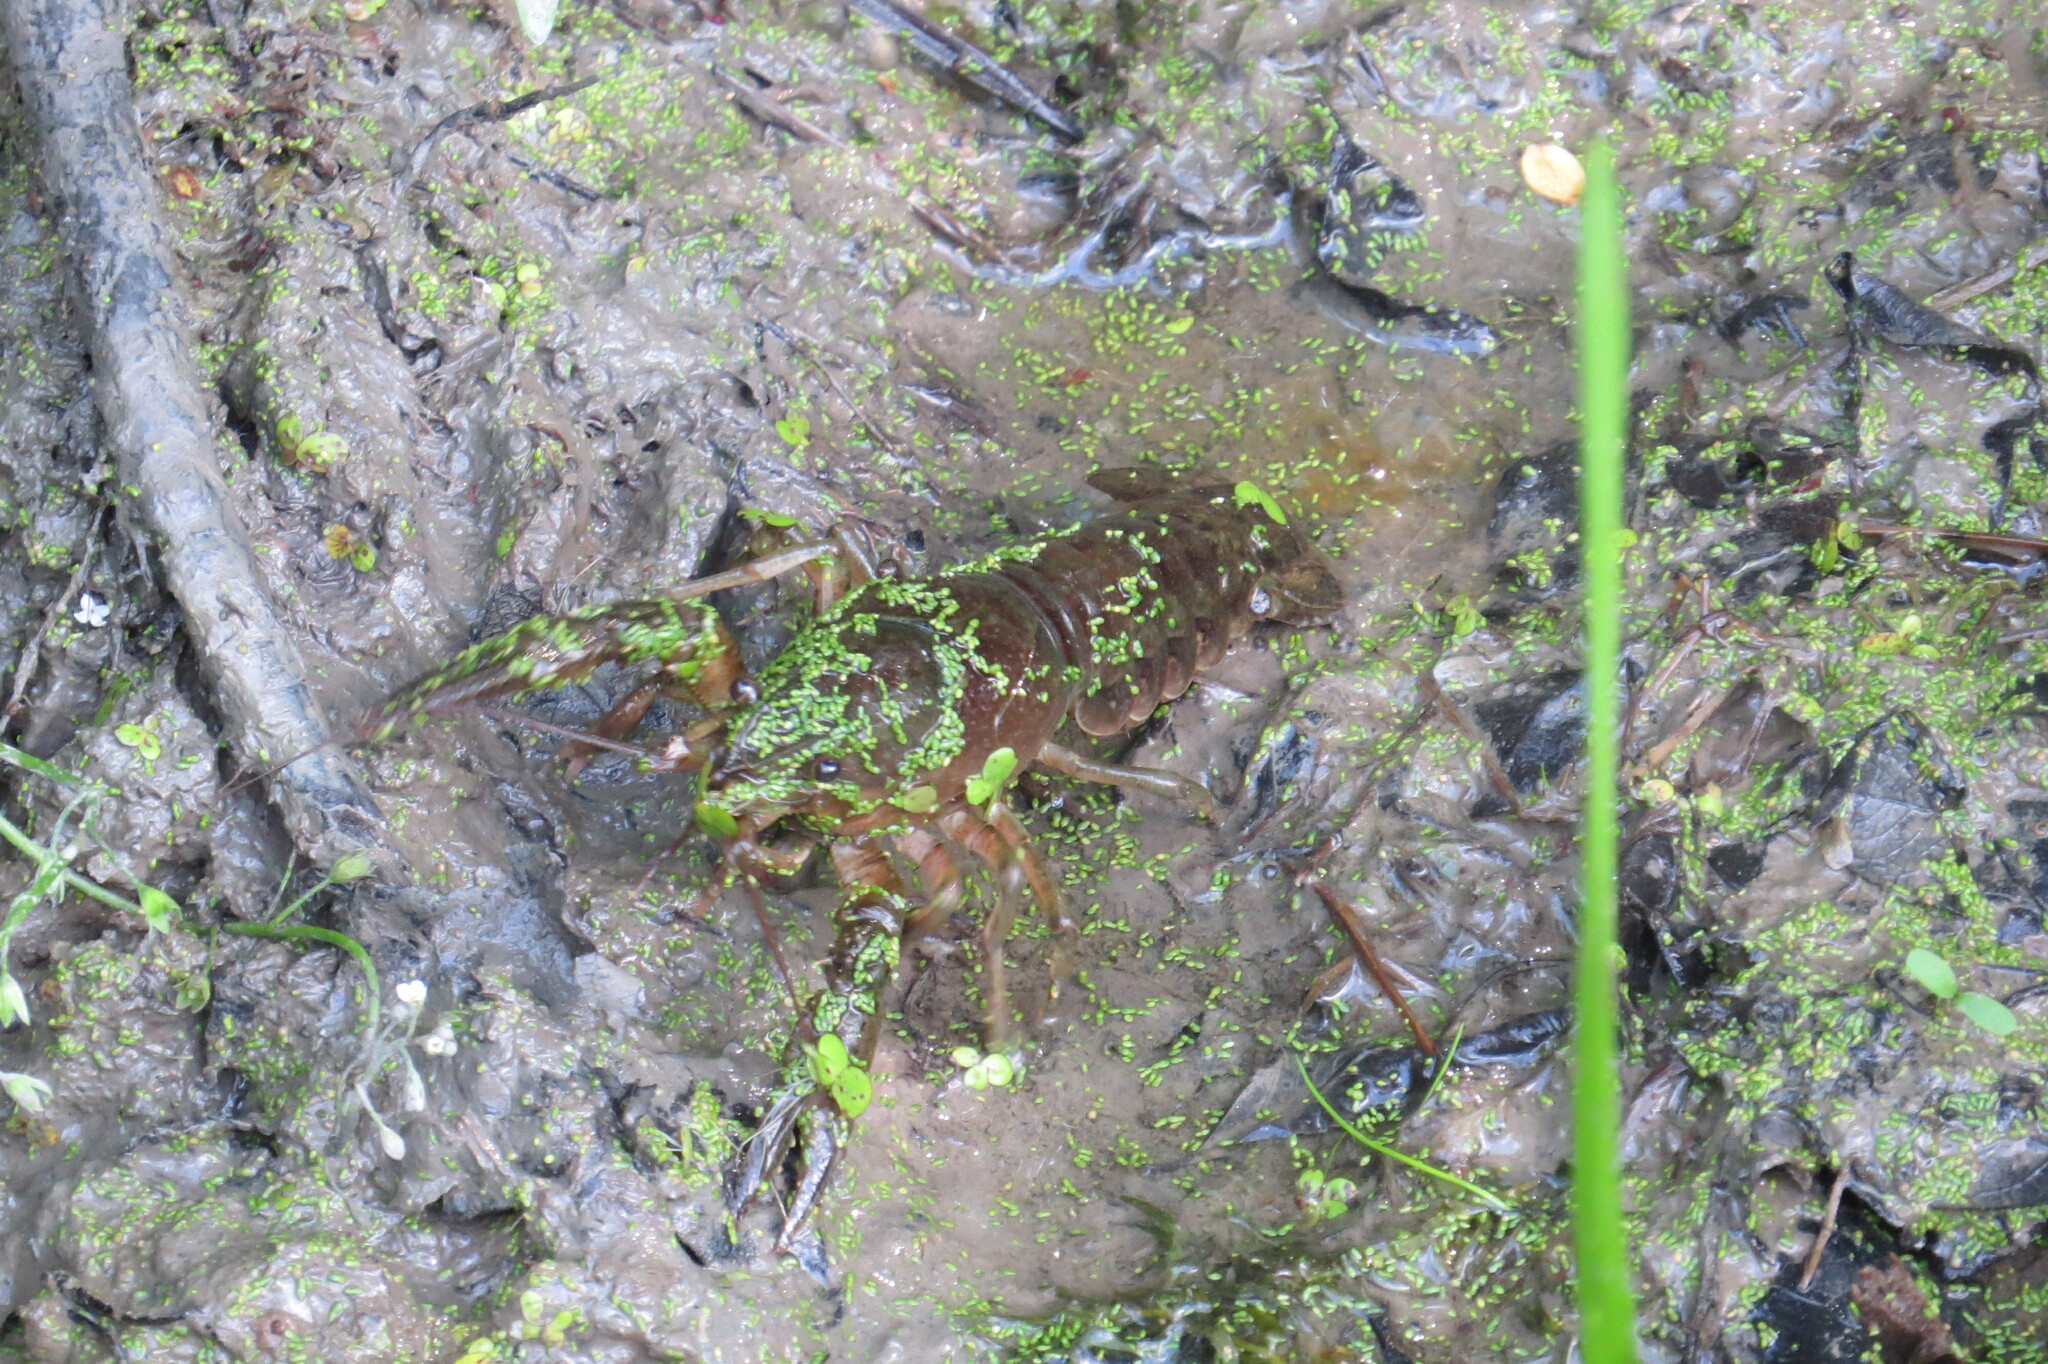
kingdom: Animalia
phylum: Arthropoda
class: Malacostraca
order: Decapoda
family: Cambaridae
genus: Faxonius
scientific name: Faxonius immunis
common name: Calico crayfish
